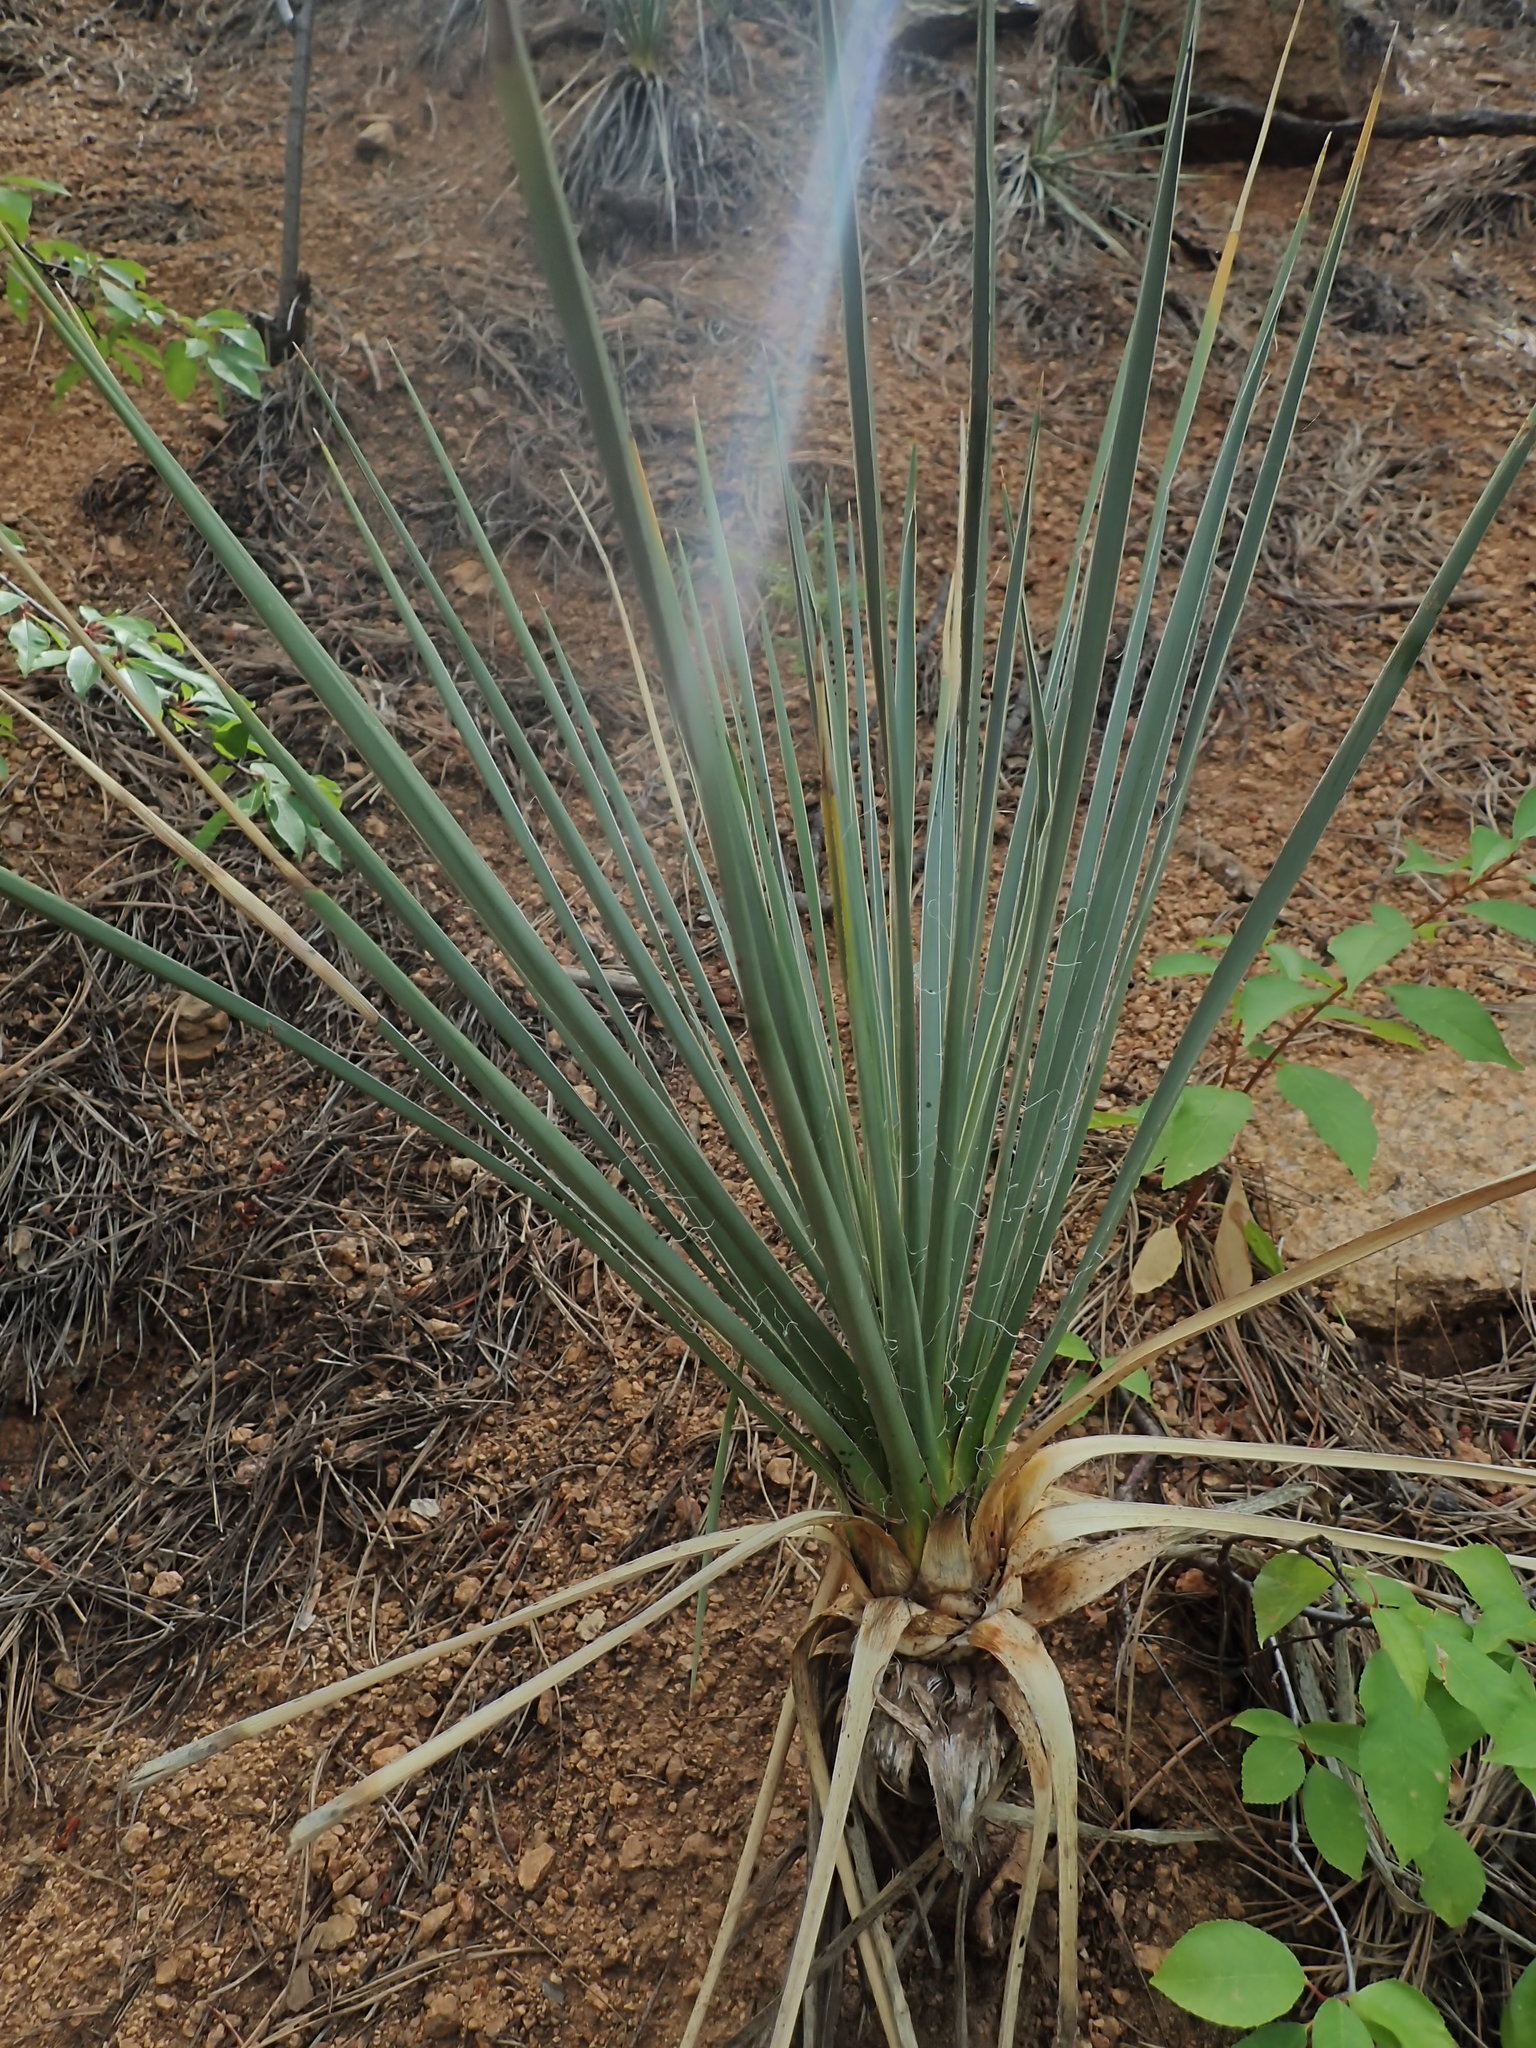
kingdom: Plantae
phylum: Tracheophyta
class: Liliopsida
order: Asparagales
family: Asparagaceae
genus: Yucca
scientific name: Yucca glauca
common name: Great plains yucca
